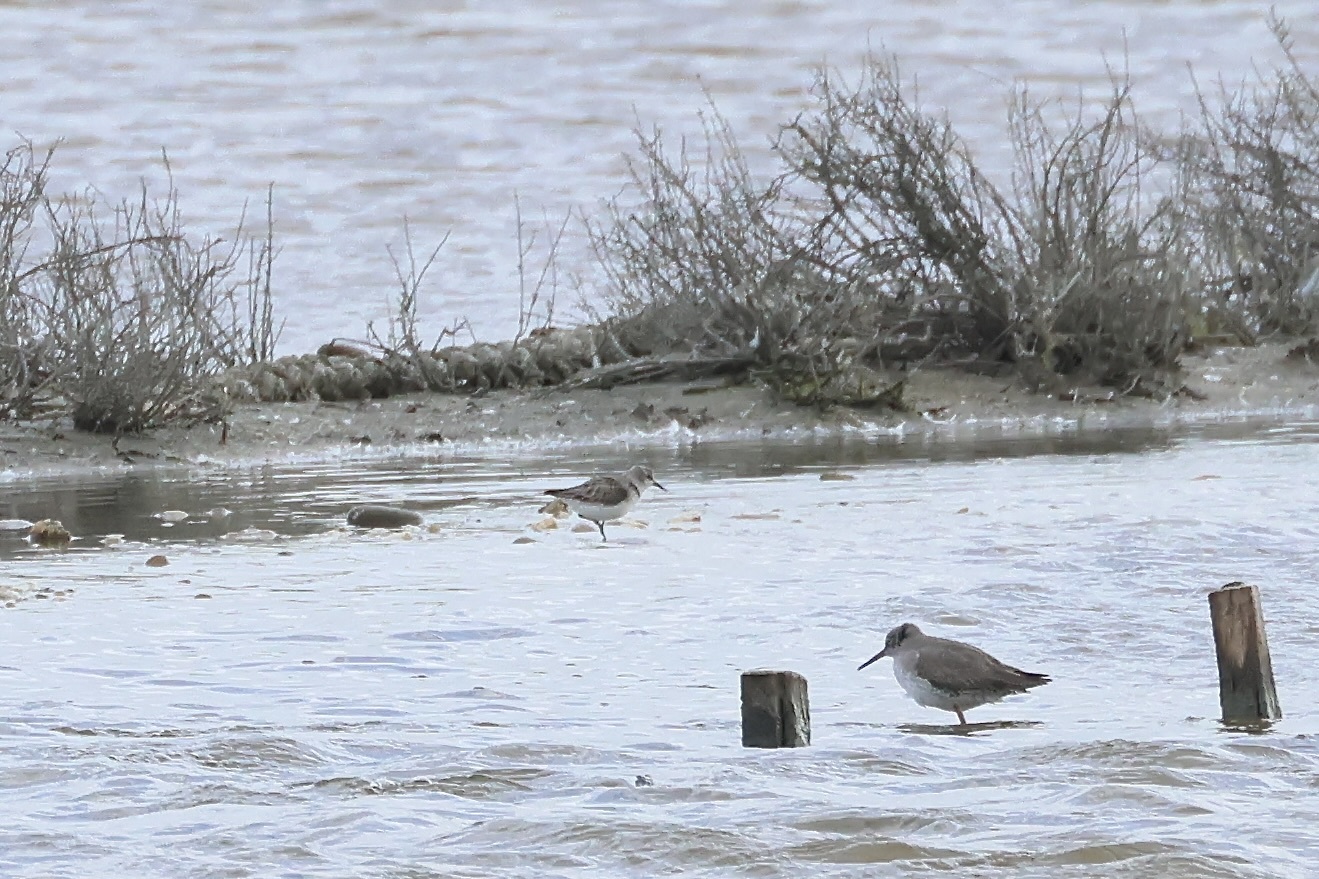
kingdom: Animalia
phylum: Chordata
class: Aves
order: Charadriiformes
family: Scolopacidae
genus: Calidris
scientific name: Calidris minuta
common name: Little stint
